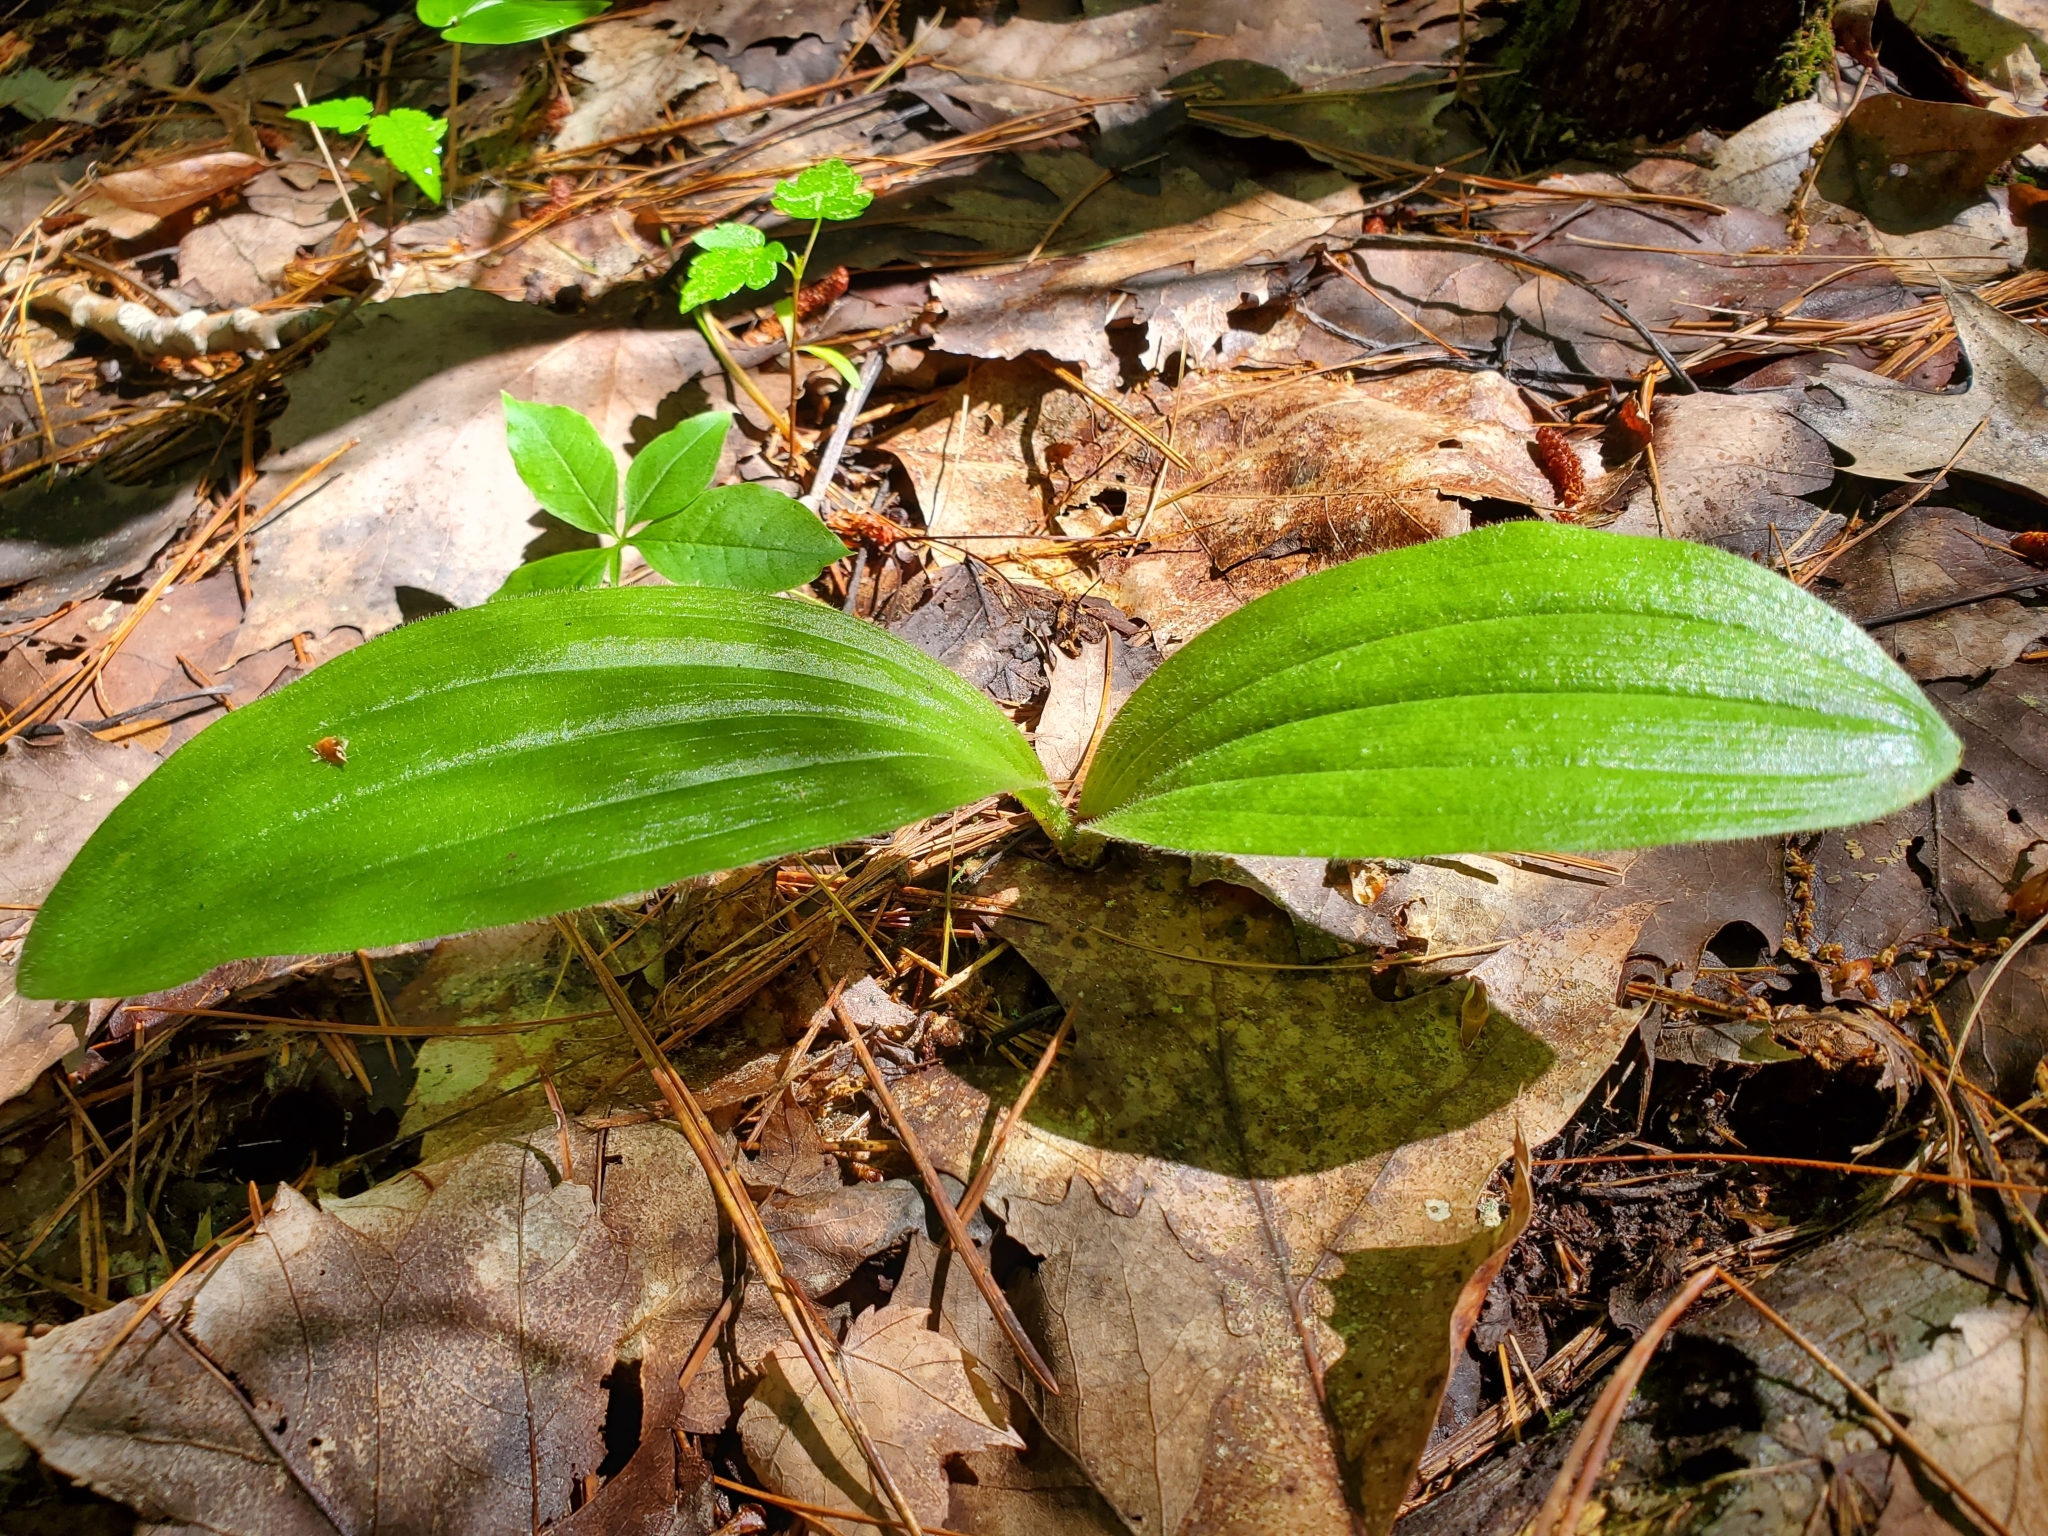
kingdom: Plantae
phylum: Tracheophyta
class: Liliopsida
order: Asparagales
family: Orchidaceae
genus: Cypripedium
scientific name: Cypripedium acaule
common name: Pink lady's-slipper
